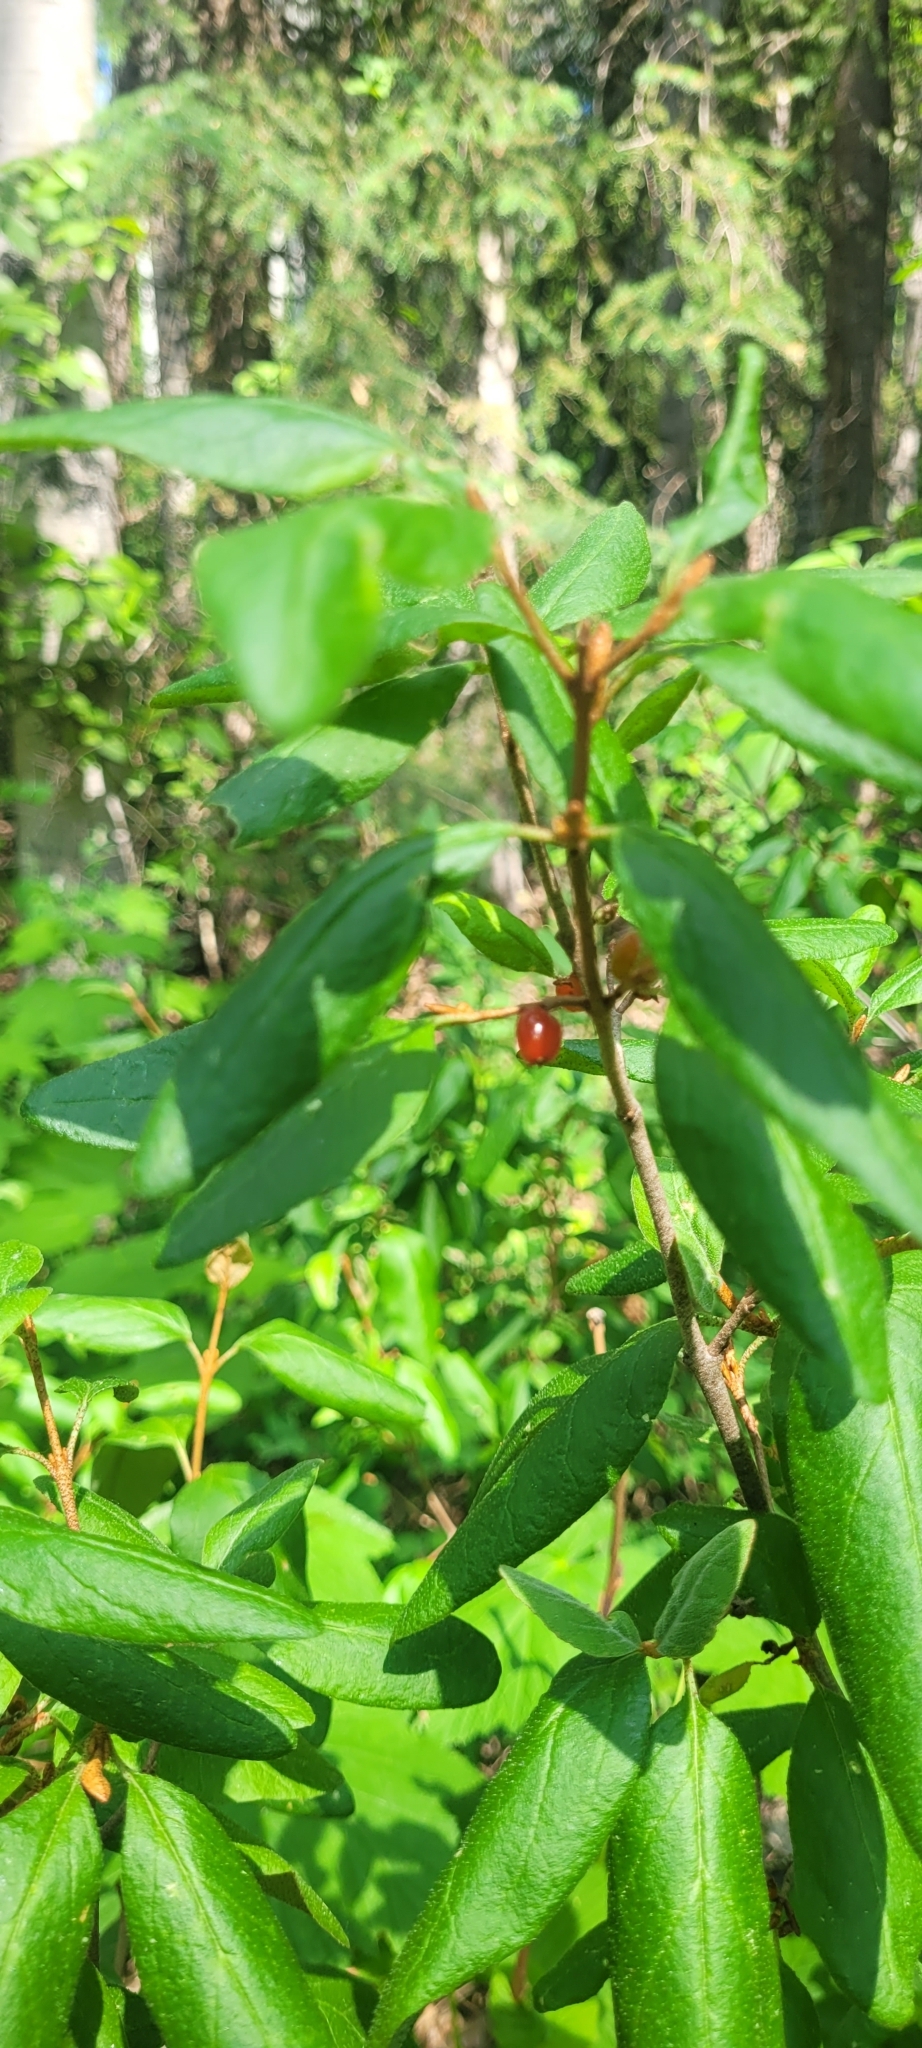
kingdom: Plantae
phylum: Tracheophyta
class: Magnoliopsida
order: Rosales
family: Elaeagnaceae
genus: Shepherdia
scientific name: Shepherdia canadensis
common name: Soapberry
